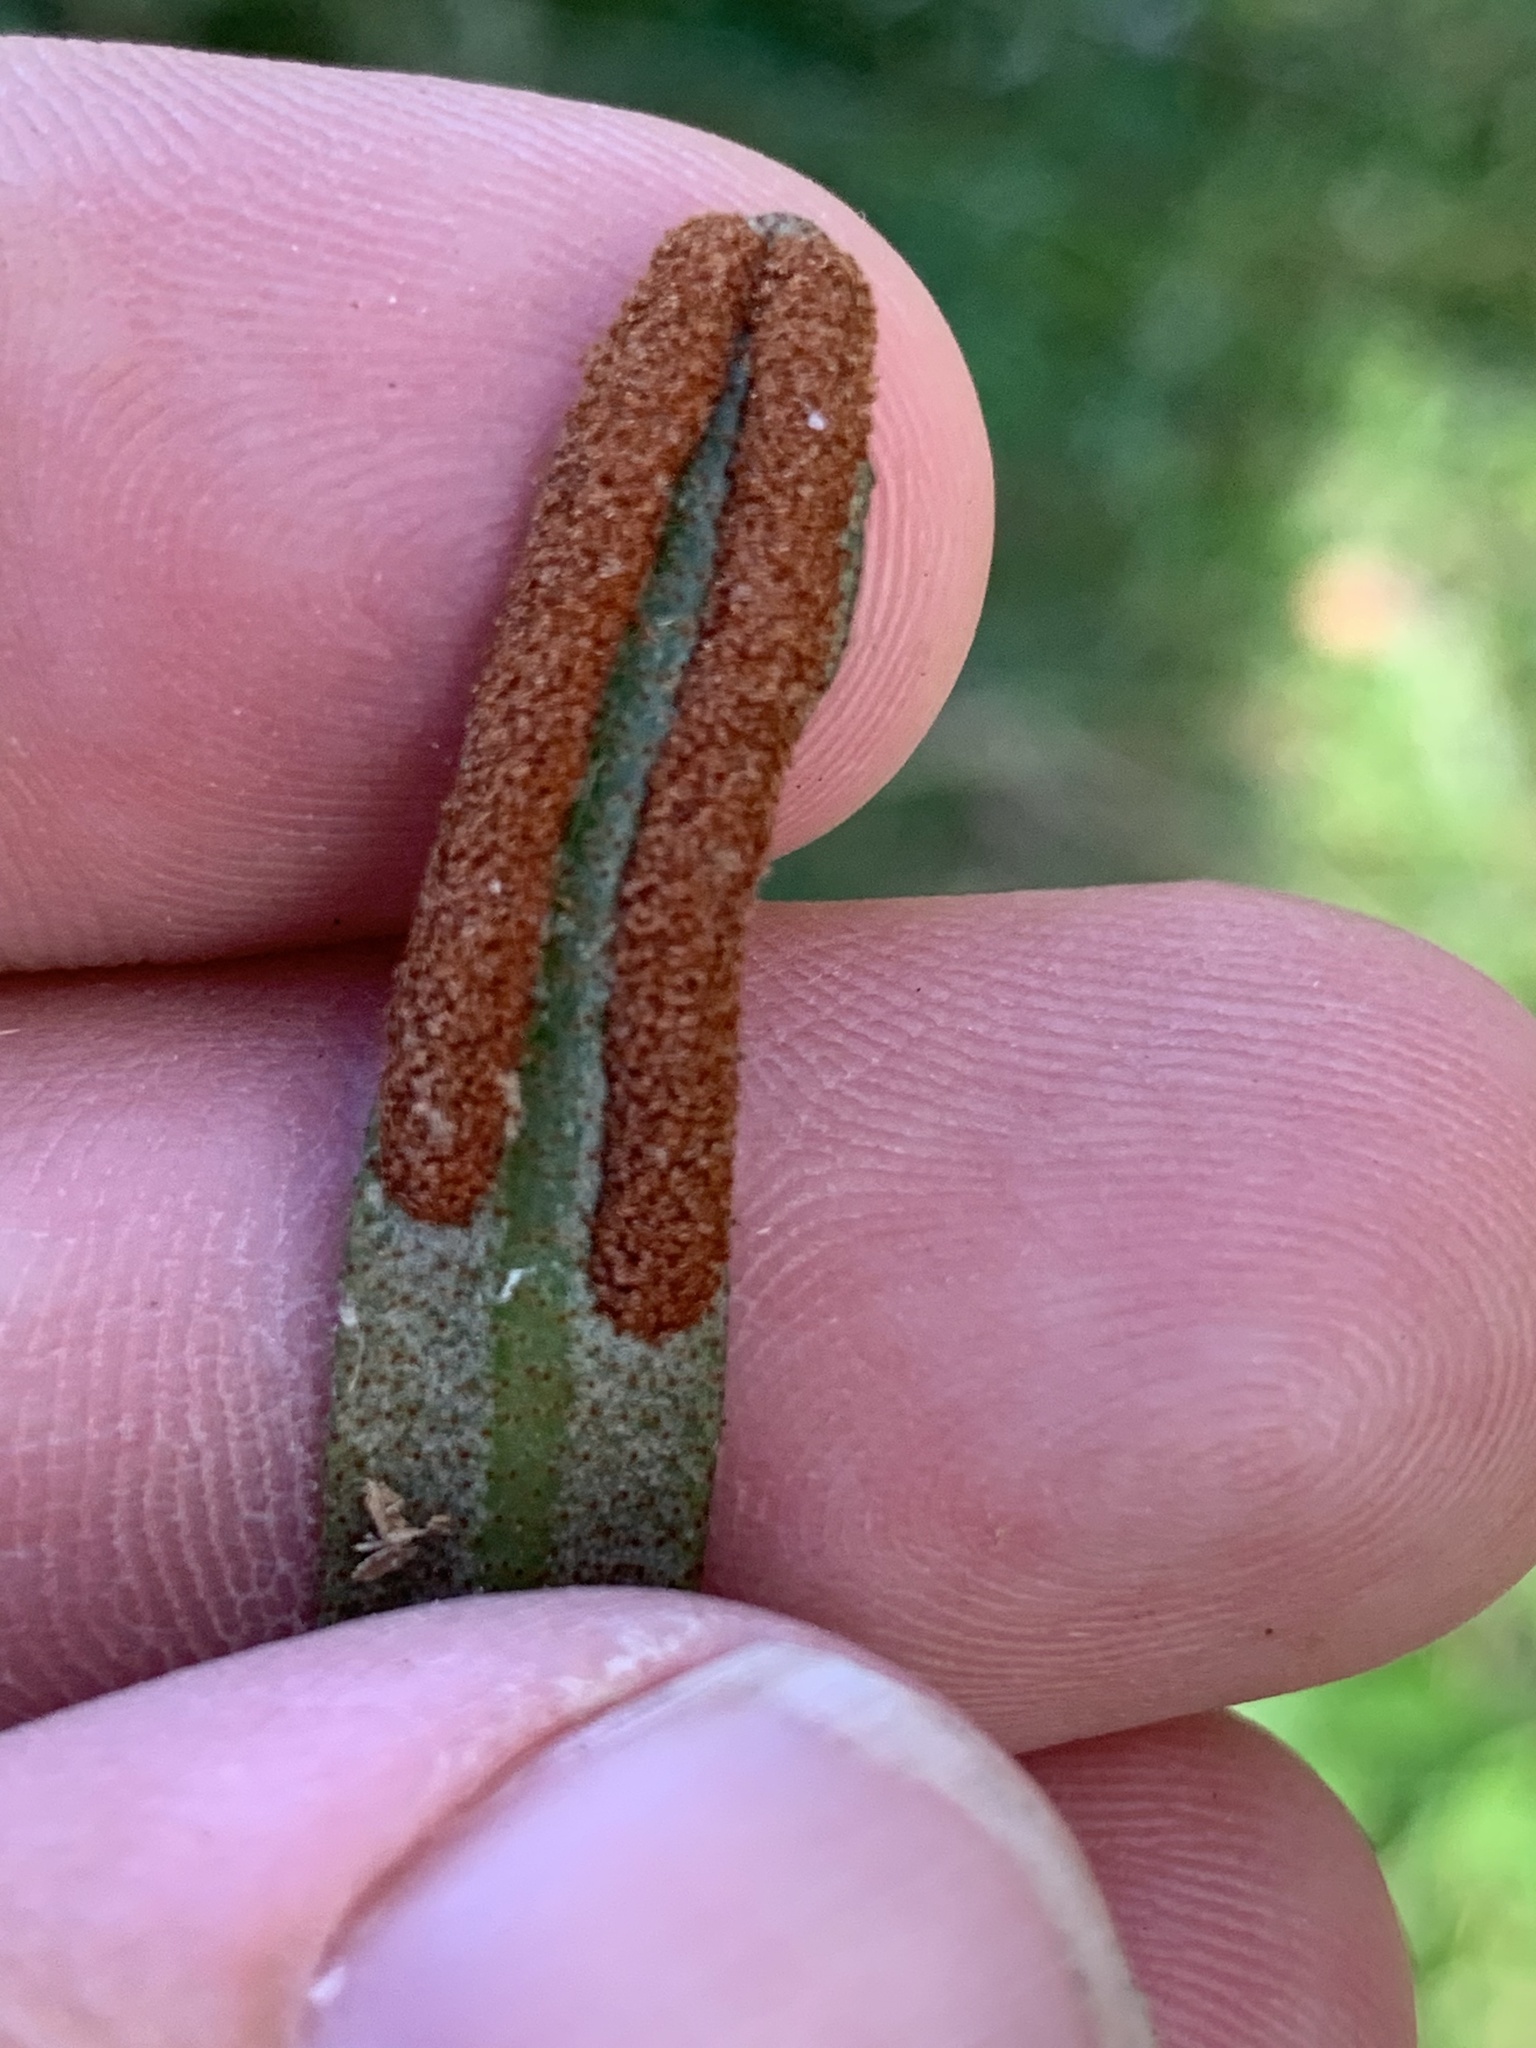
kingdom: Plantae
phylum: Tracheophyta
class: Polypodiopsida
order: Polypodiales
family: Polypodiaceae
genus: Pyrrosia
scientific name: Pyrrosia confluens
